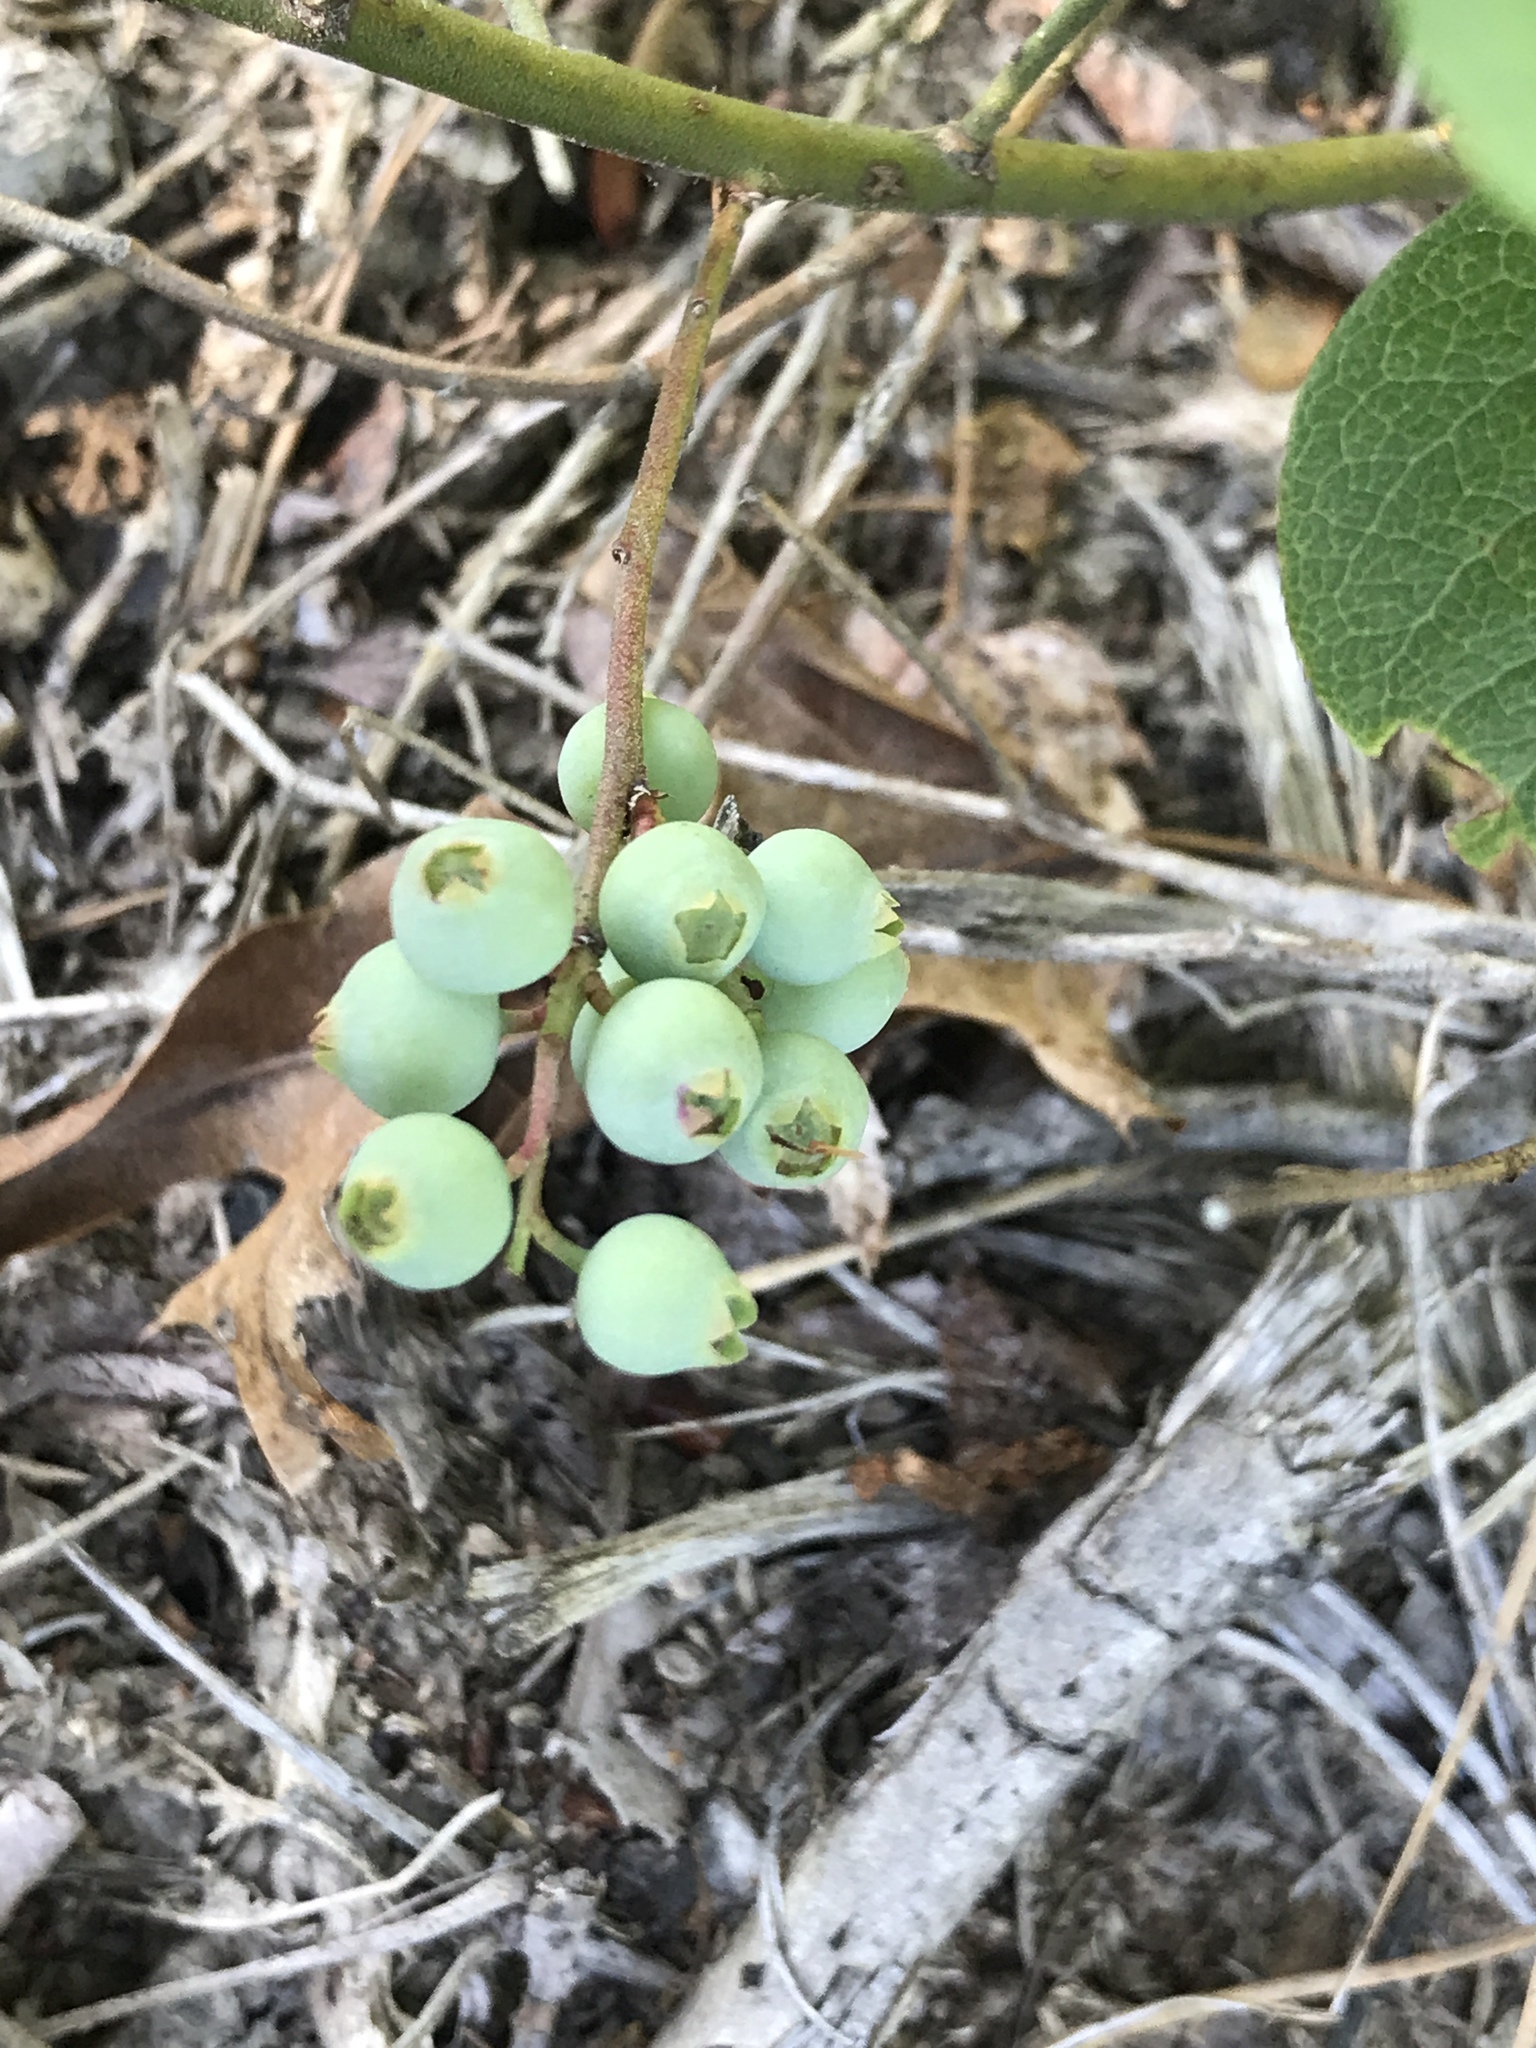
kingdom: Plantae
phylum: Tracheophyta
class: Magnoliopsida
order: Ericales
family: Ericaceae
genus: Vaccinium
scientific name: Vaccinium pallidum
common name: Blue ridge blueberry
